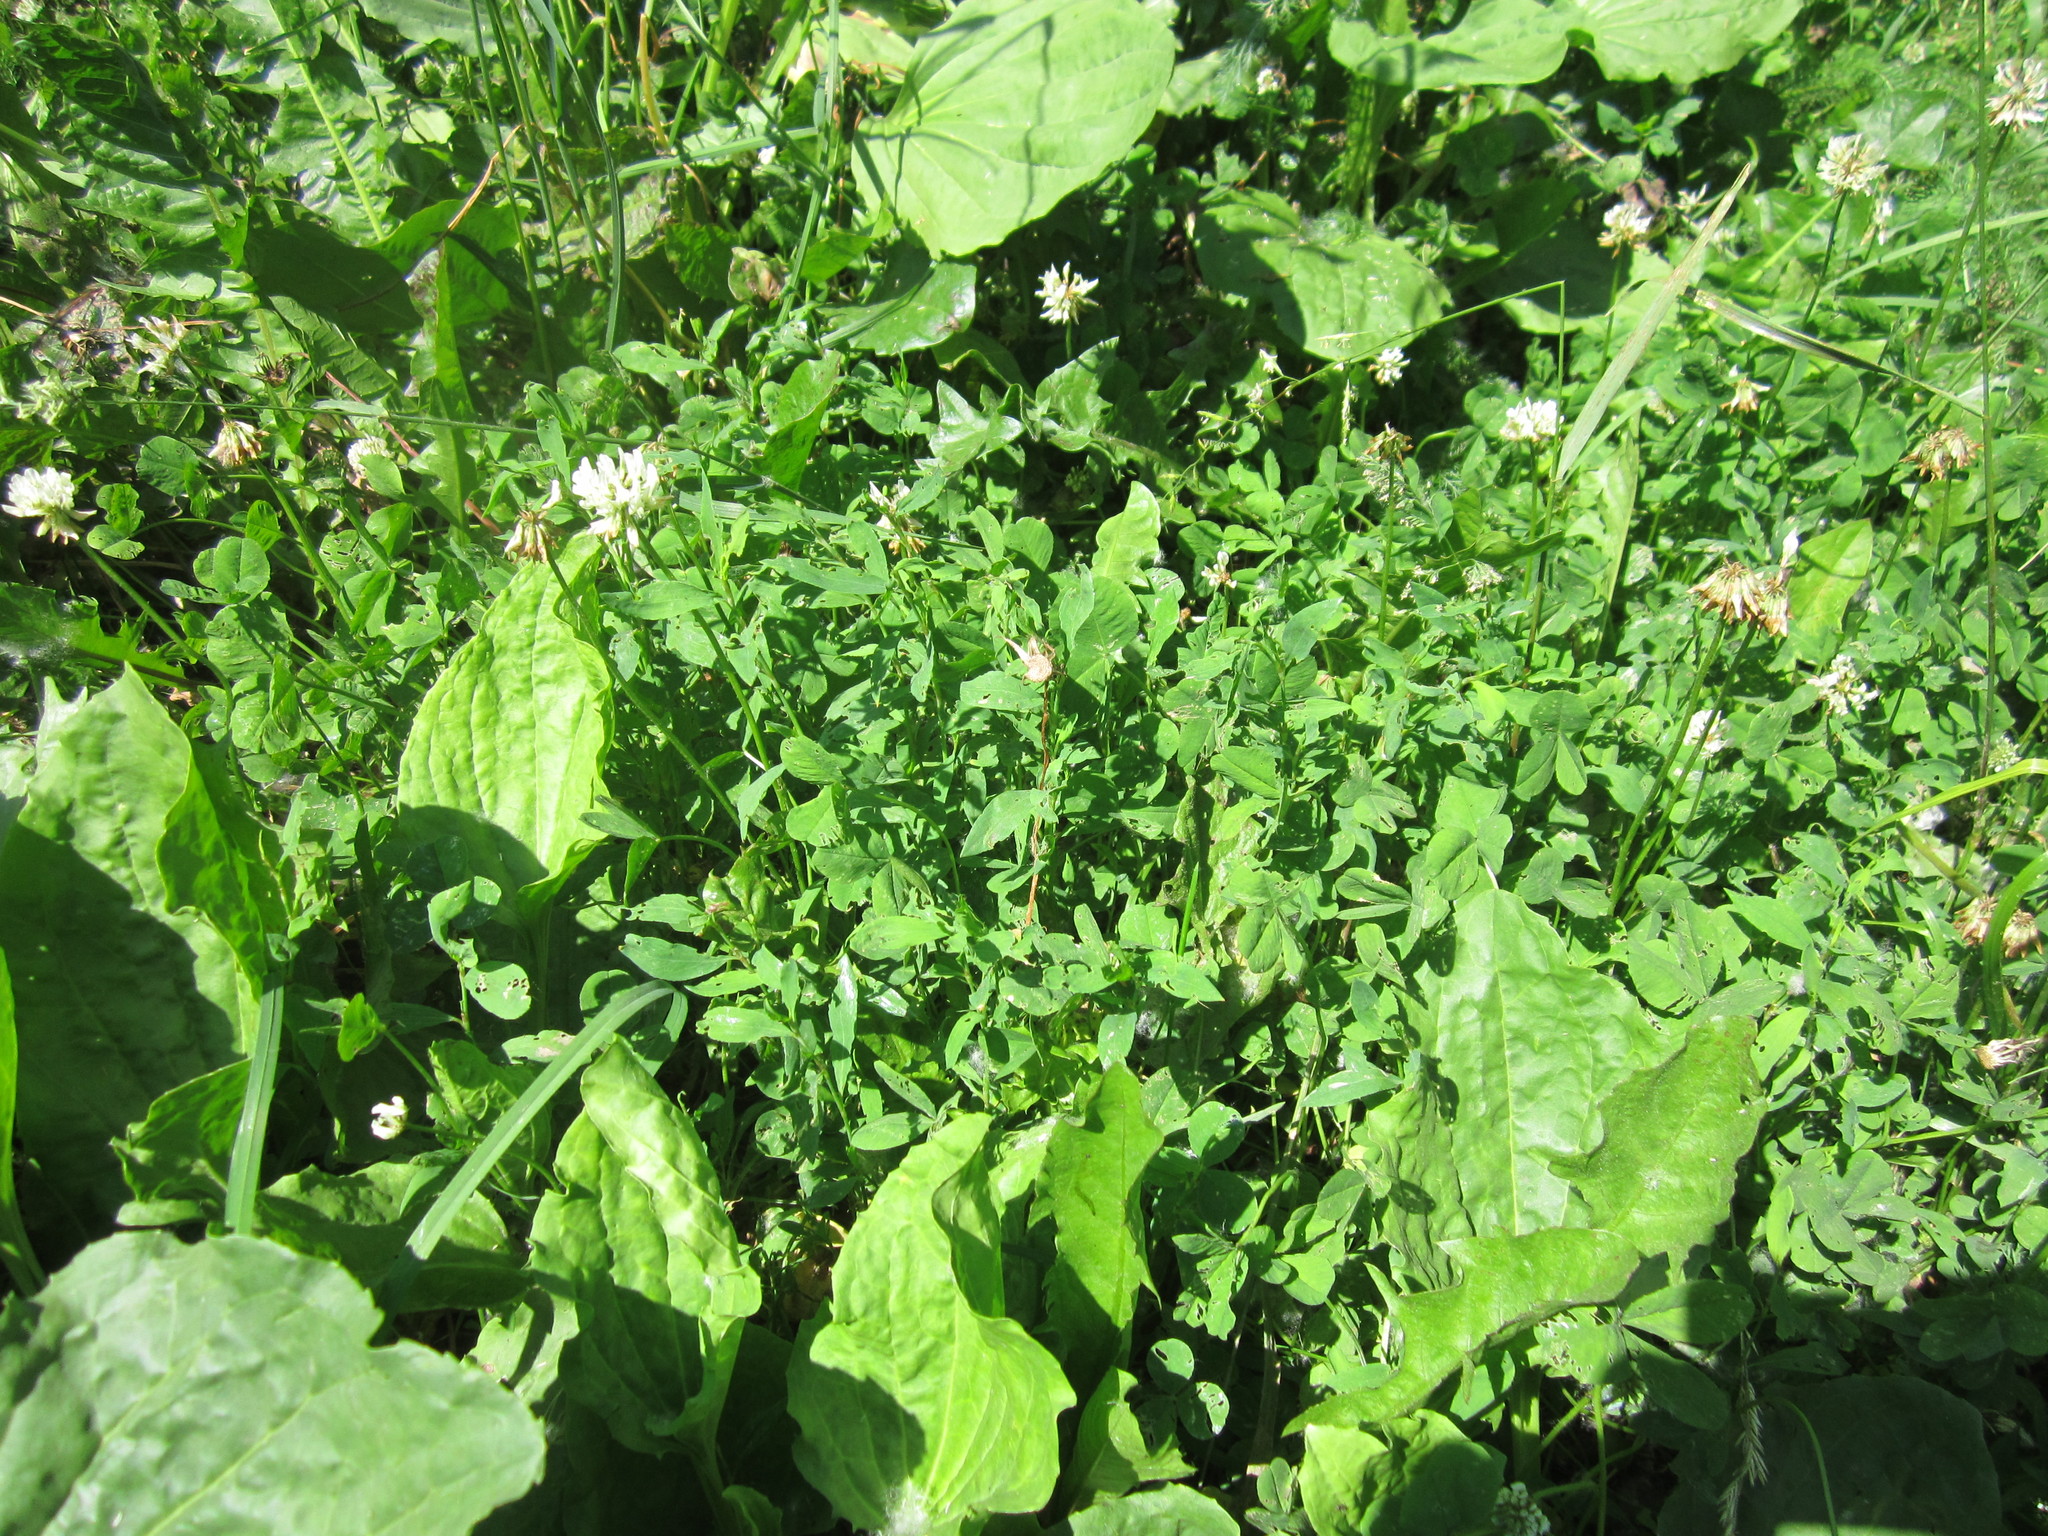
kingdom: Plantae
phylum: Tracheophyta
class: Magnoliopsida
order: Fabales
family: Fabaceae
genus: Trifolium
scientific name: Trifolium repens
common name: White clover
